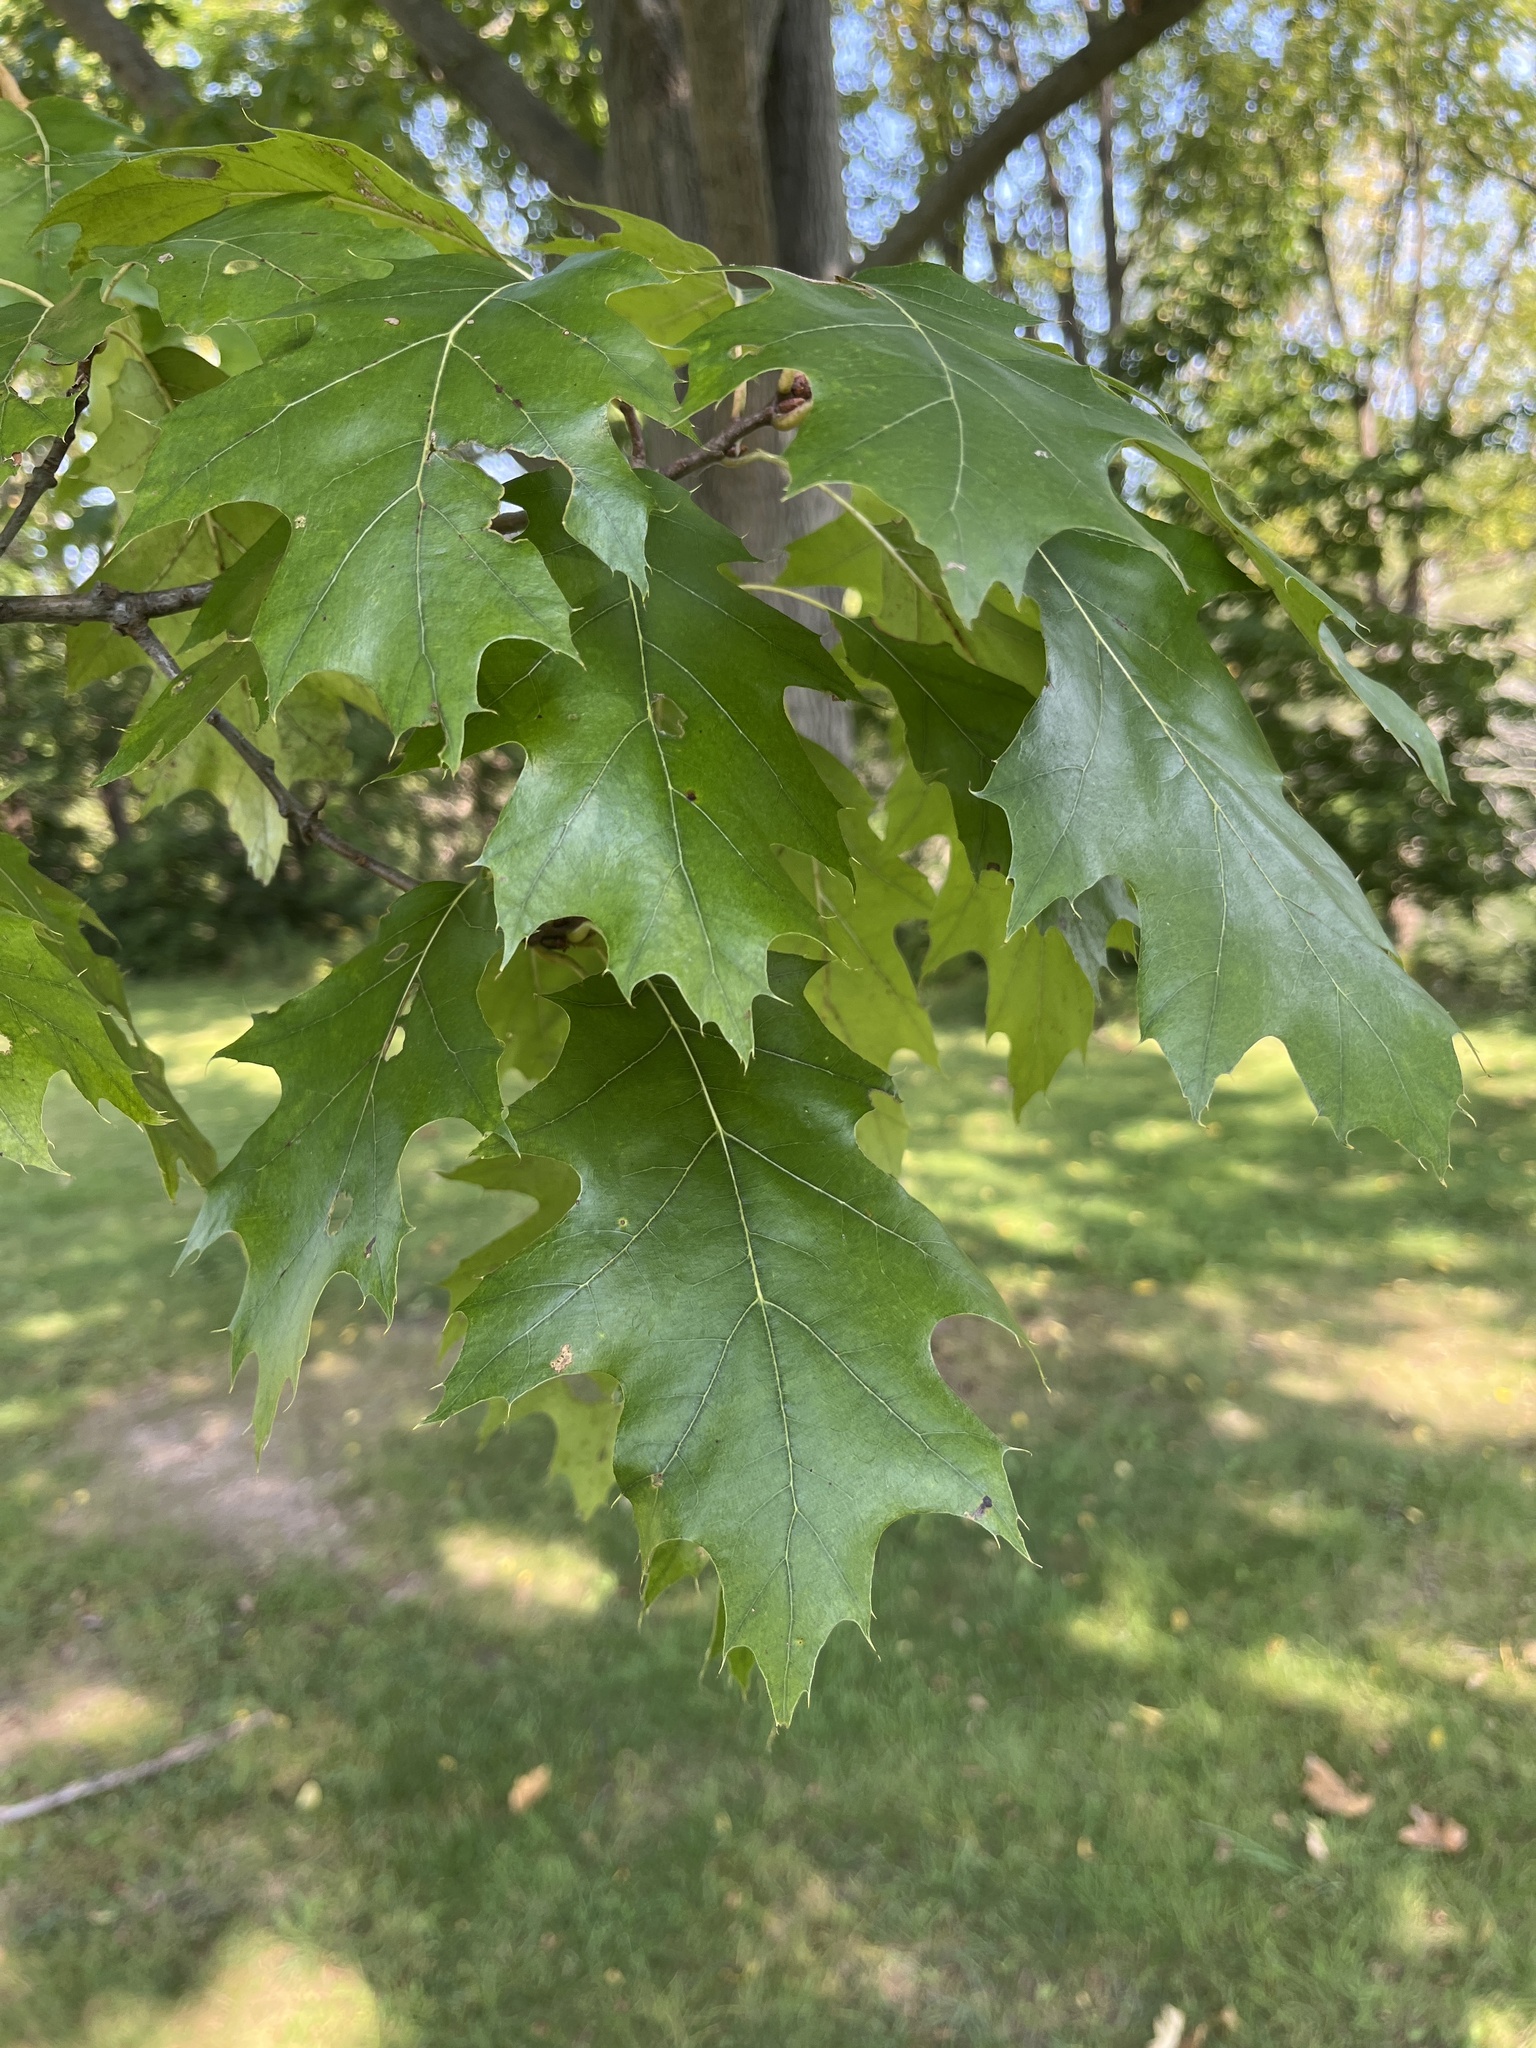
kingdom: Plantae
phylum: Tracheophyta
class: Magnoliopsida
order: Fagales
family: Fagaceae
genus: Quercus
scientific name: Quercus rubra
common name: Red oak
